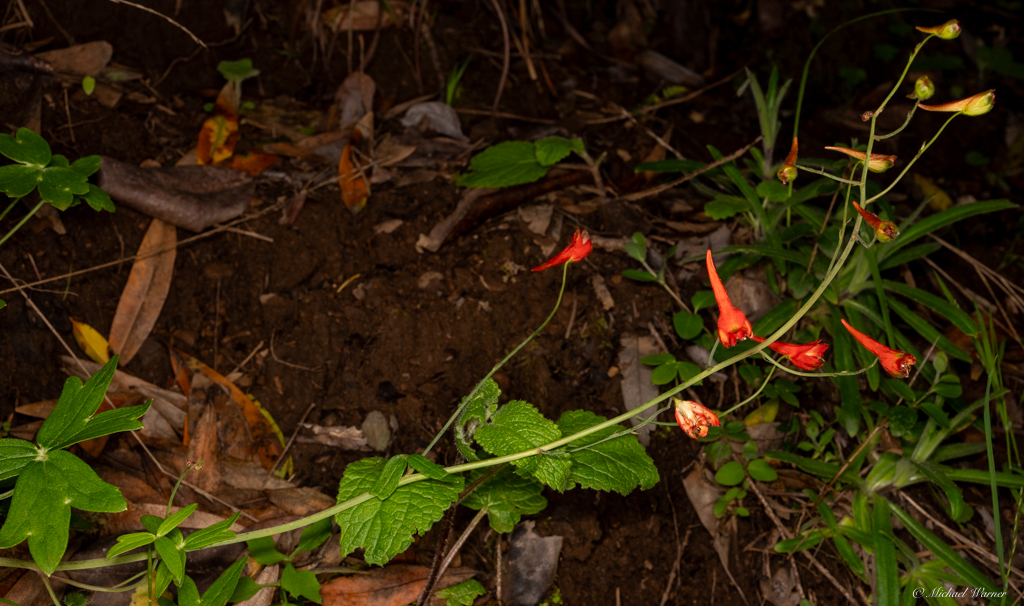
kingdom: Plantae
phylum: Tracheophyta
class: Magnoliopsida
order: Ranunculales
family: Ranunculaceae
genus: Delphinium
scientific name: Delphinium nudicaule
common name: Red larkspur
